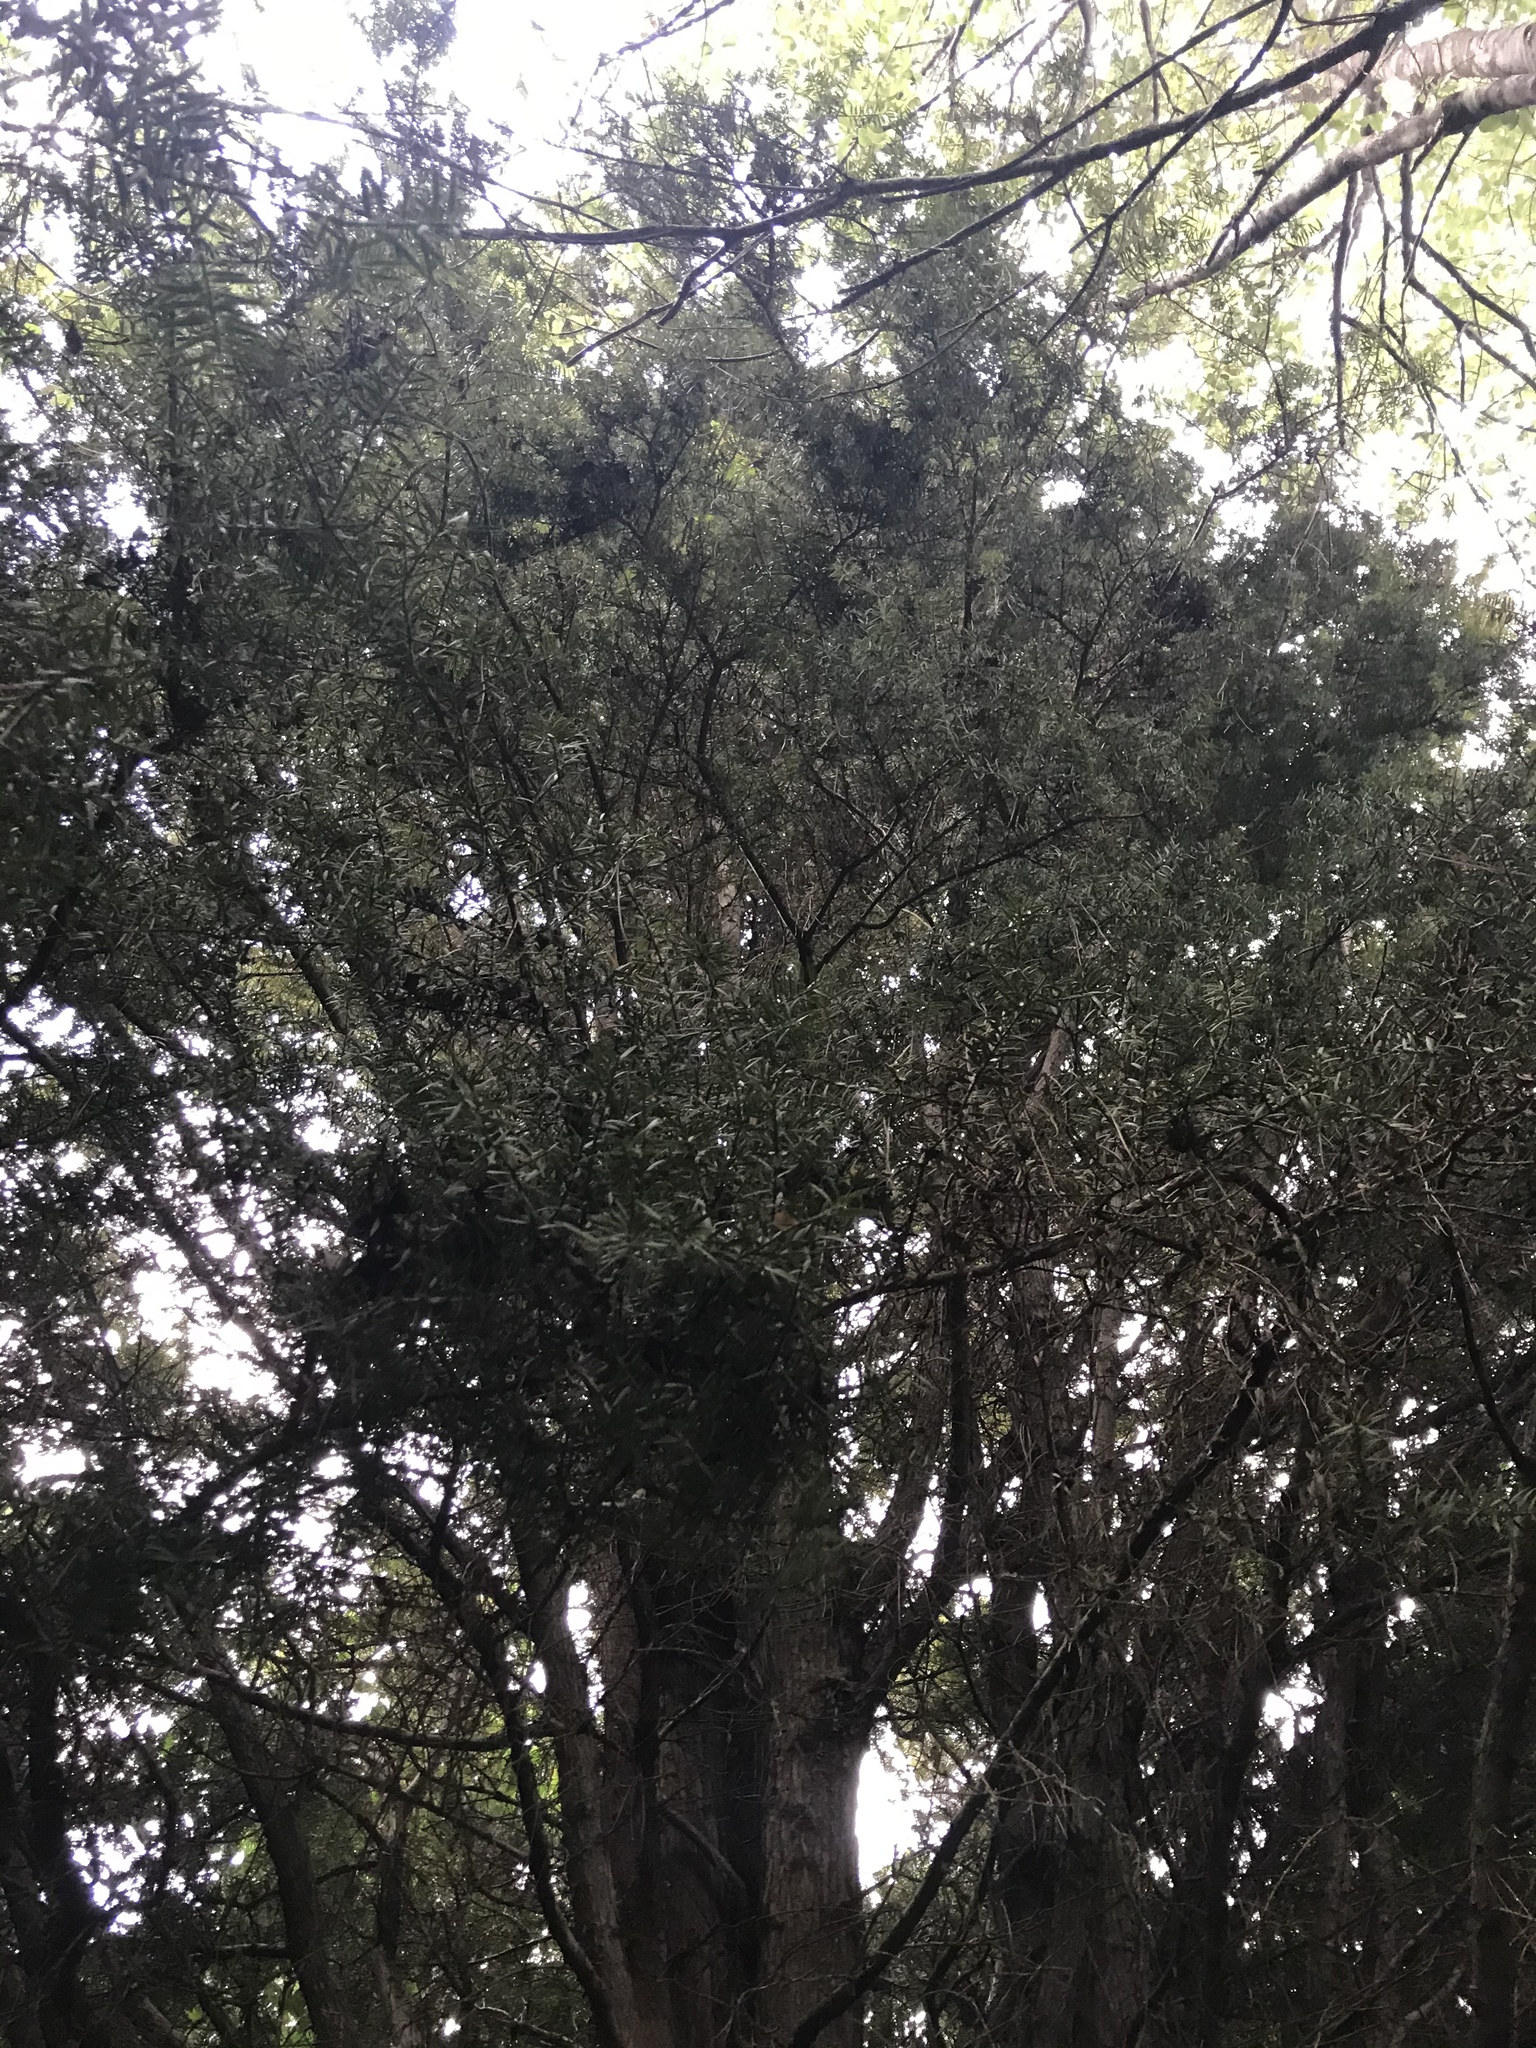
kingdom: Plantae
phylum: Tracheophyta
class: Pinopsida
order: Pinales
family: Podocarpaceae
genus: Podocarpus
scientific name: Podocarpus totara
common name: Totara
